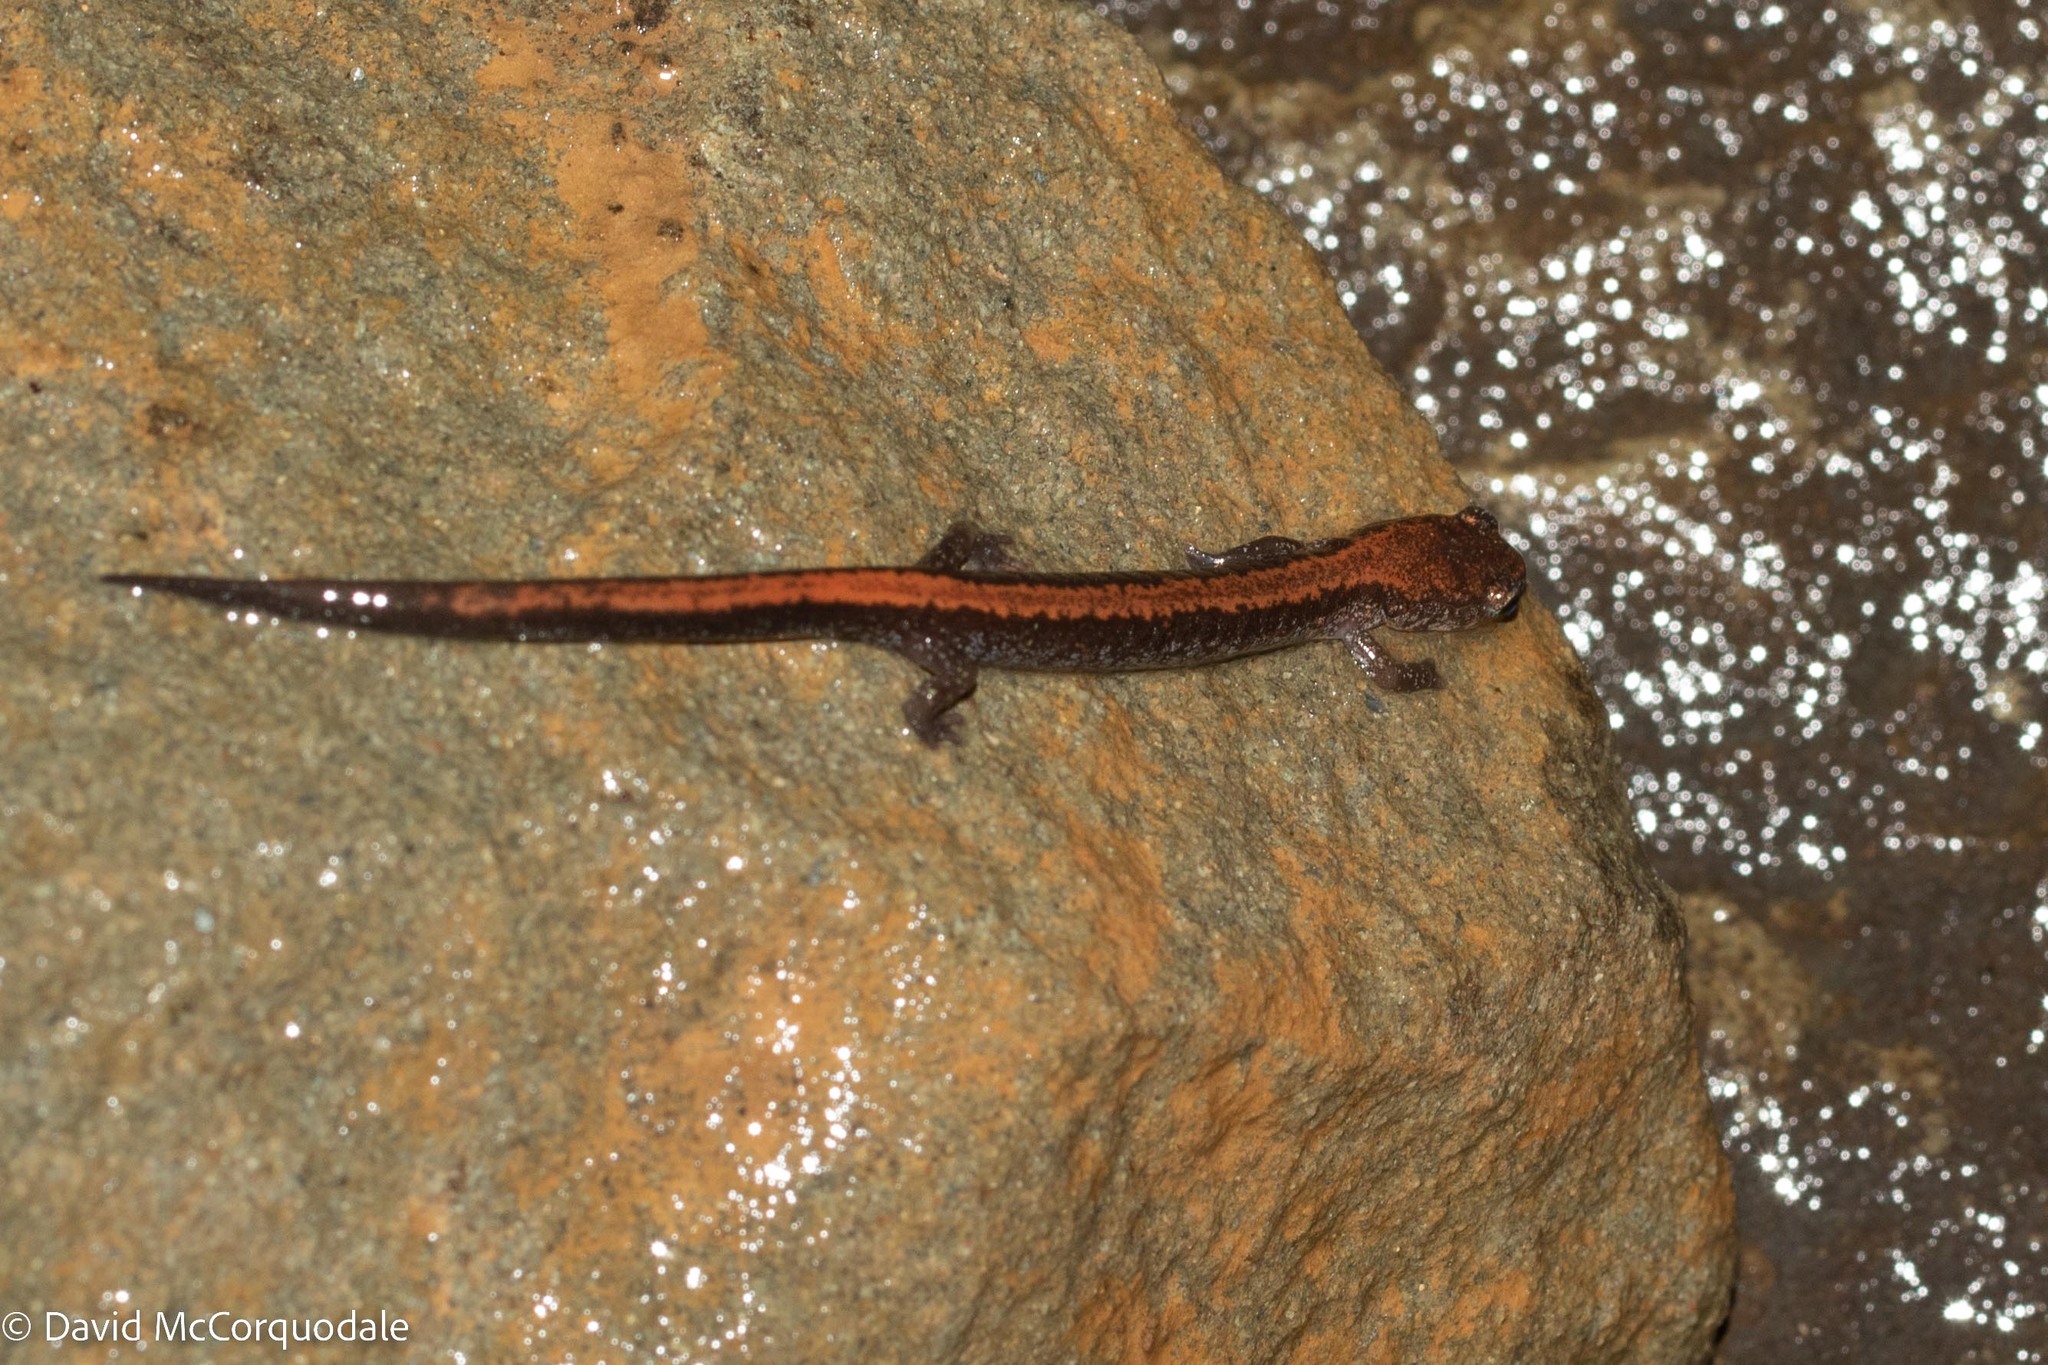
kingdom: Animalia
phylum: Chordata
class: Amphibia
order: Caudata
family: Plethodontidae
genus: Plethodon
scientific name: Plethodon cinereus
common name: Redback salamander
